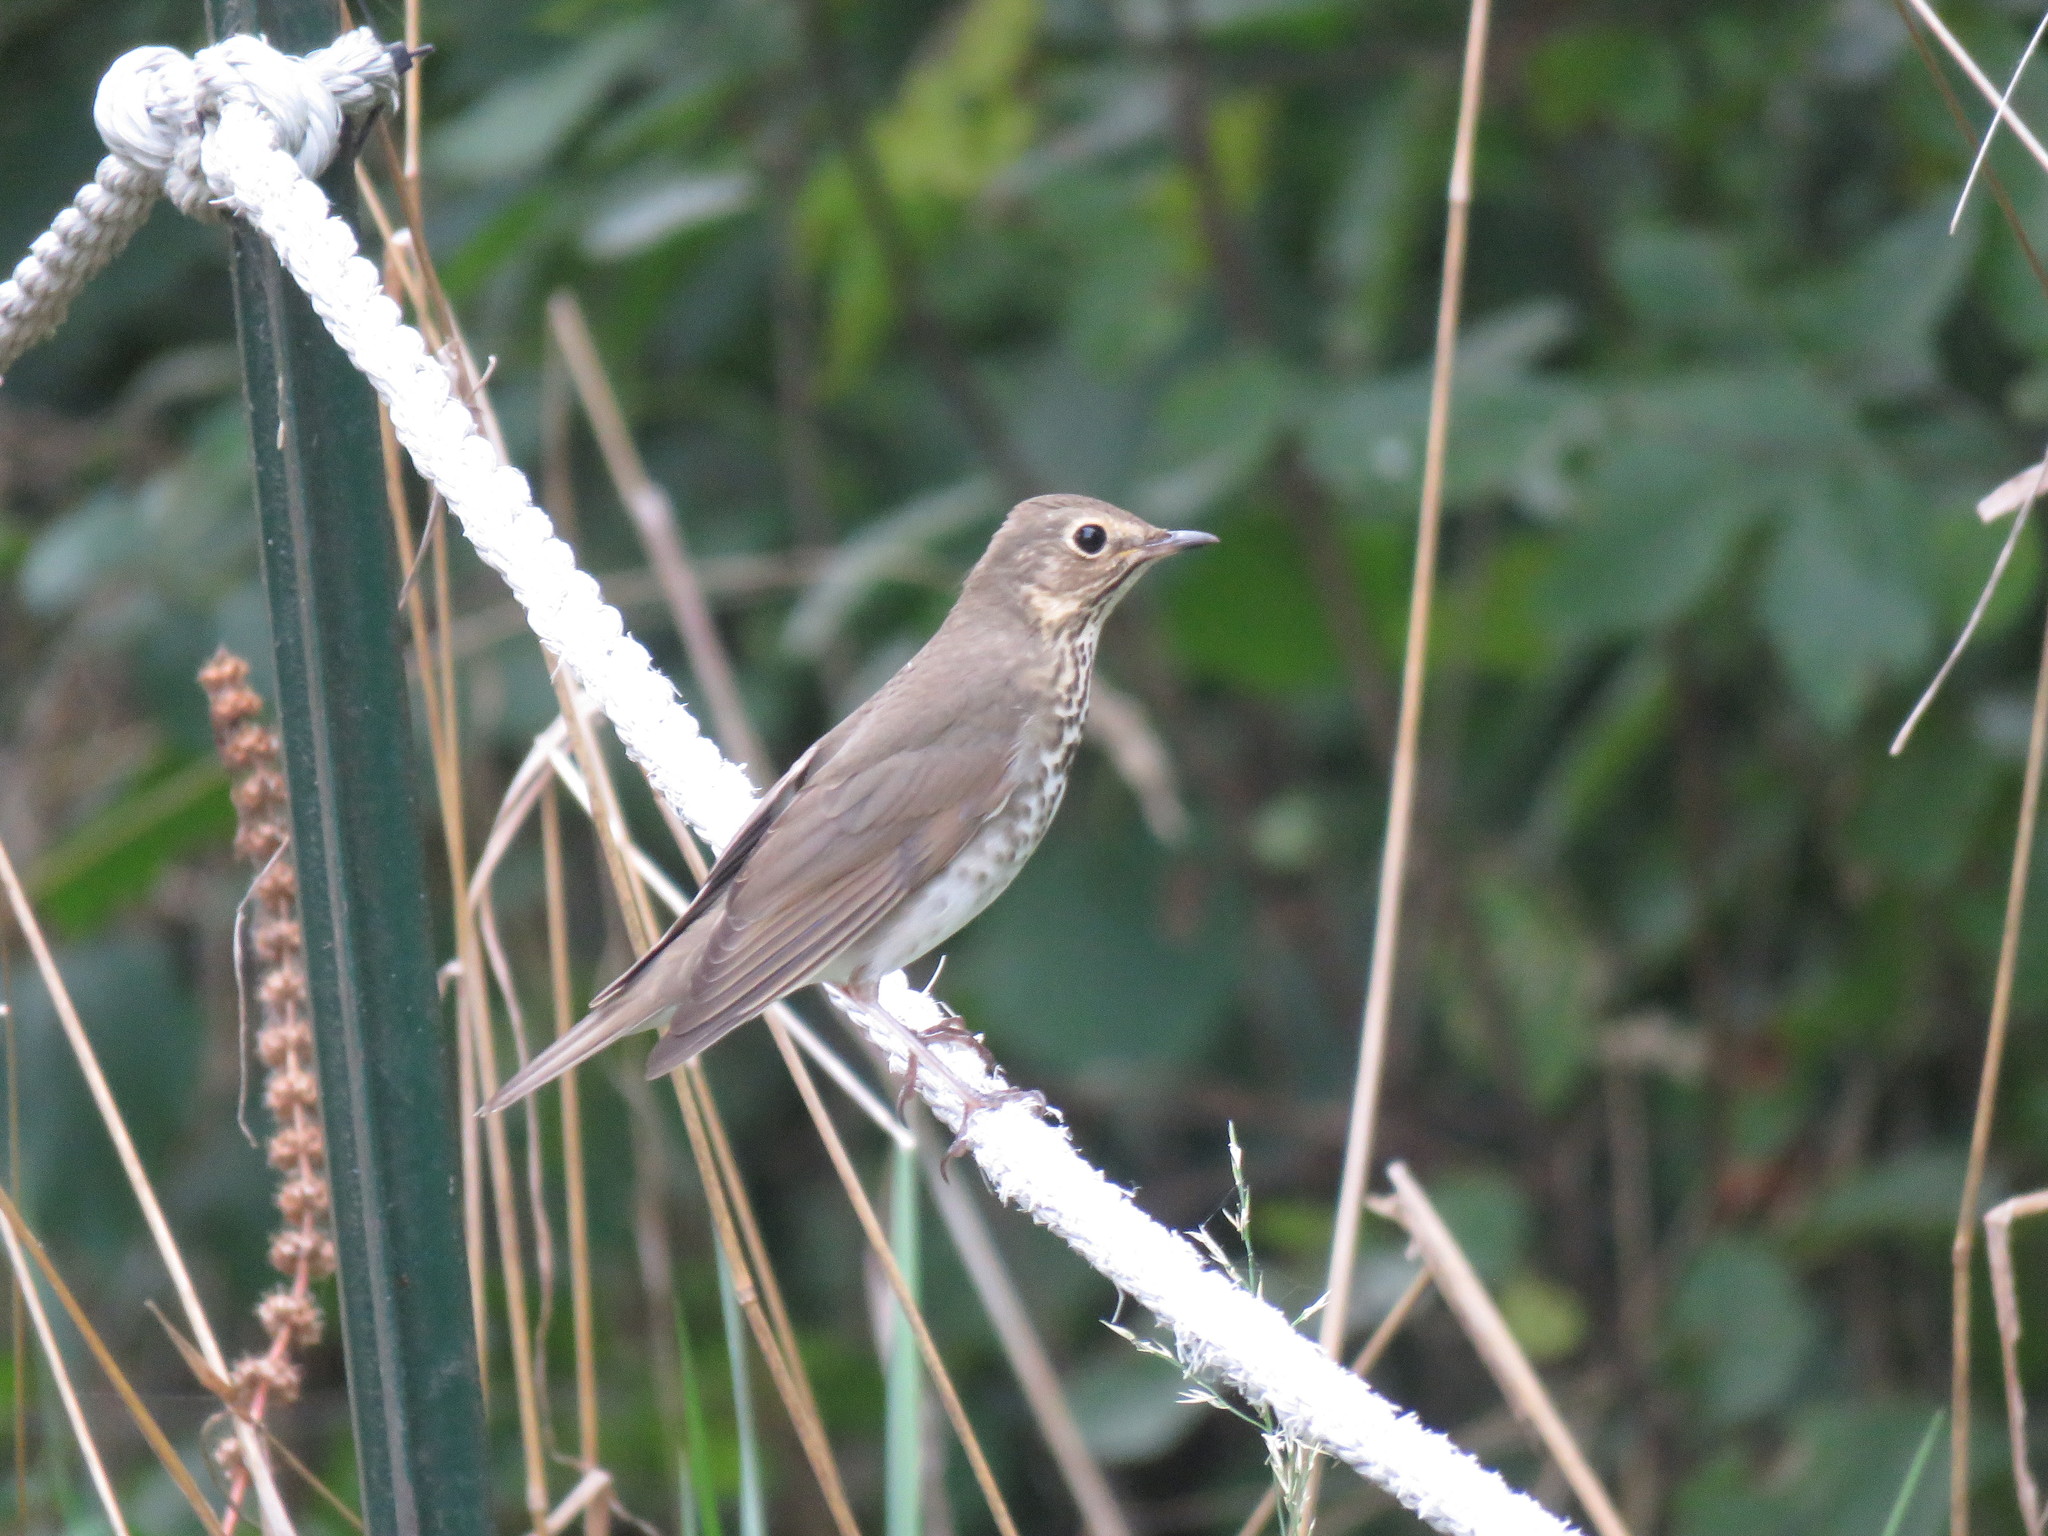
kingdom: Animalia
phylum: Chordata
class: Aves
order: Passeriformes
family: Turdidae
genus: Catharus
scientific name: Catharus ustulatus
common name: Swainson's thrush
